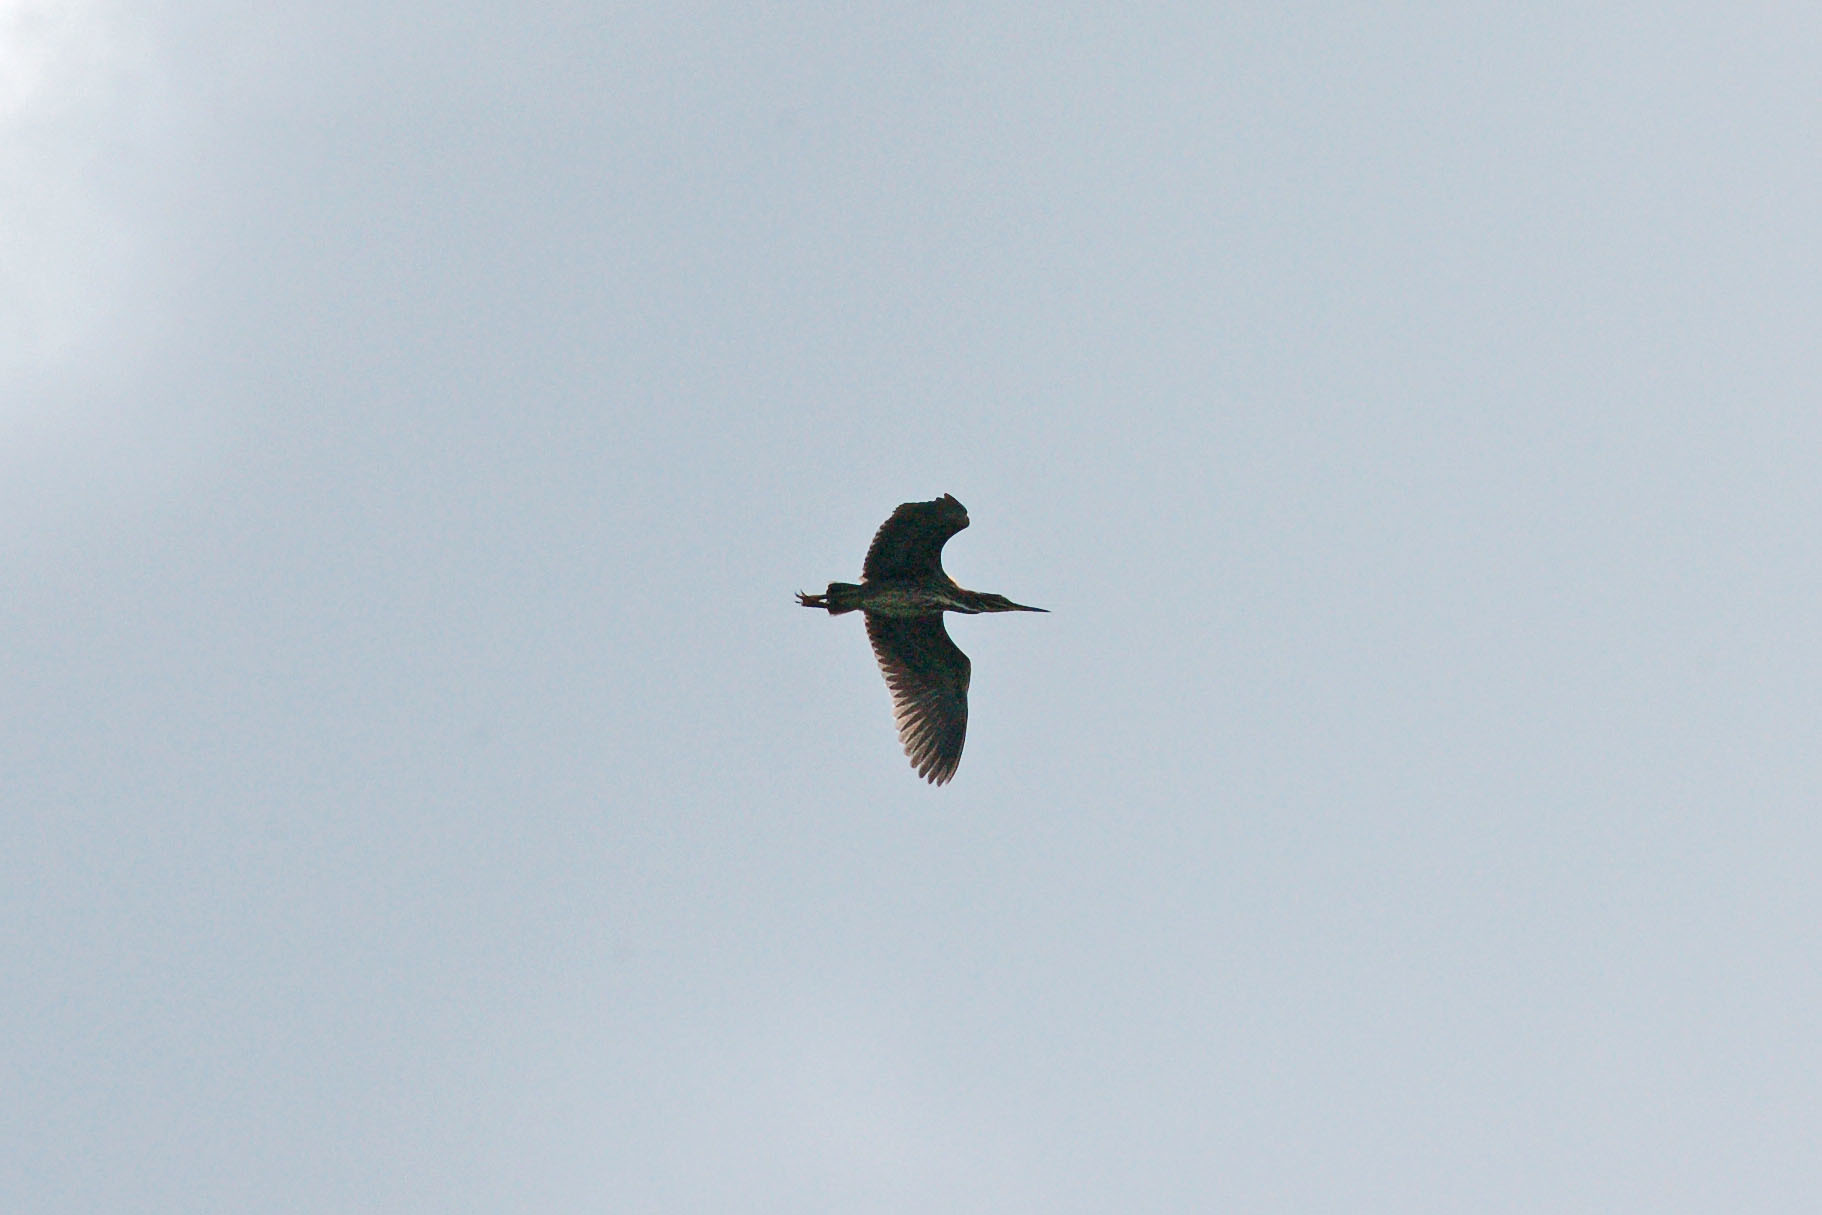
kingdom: Animalia
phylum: Chordata
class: Aves
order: Pelecaniformes
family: Ardeidae
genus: Butorides
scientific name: Butorides virescens
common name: Green heron
